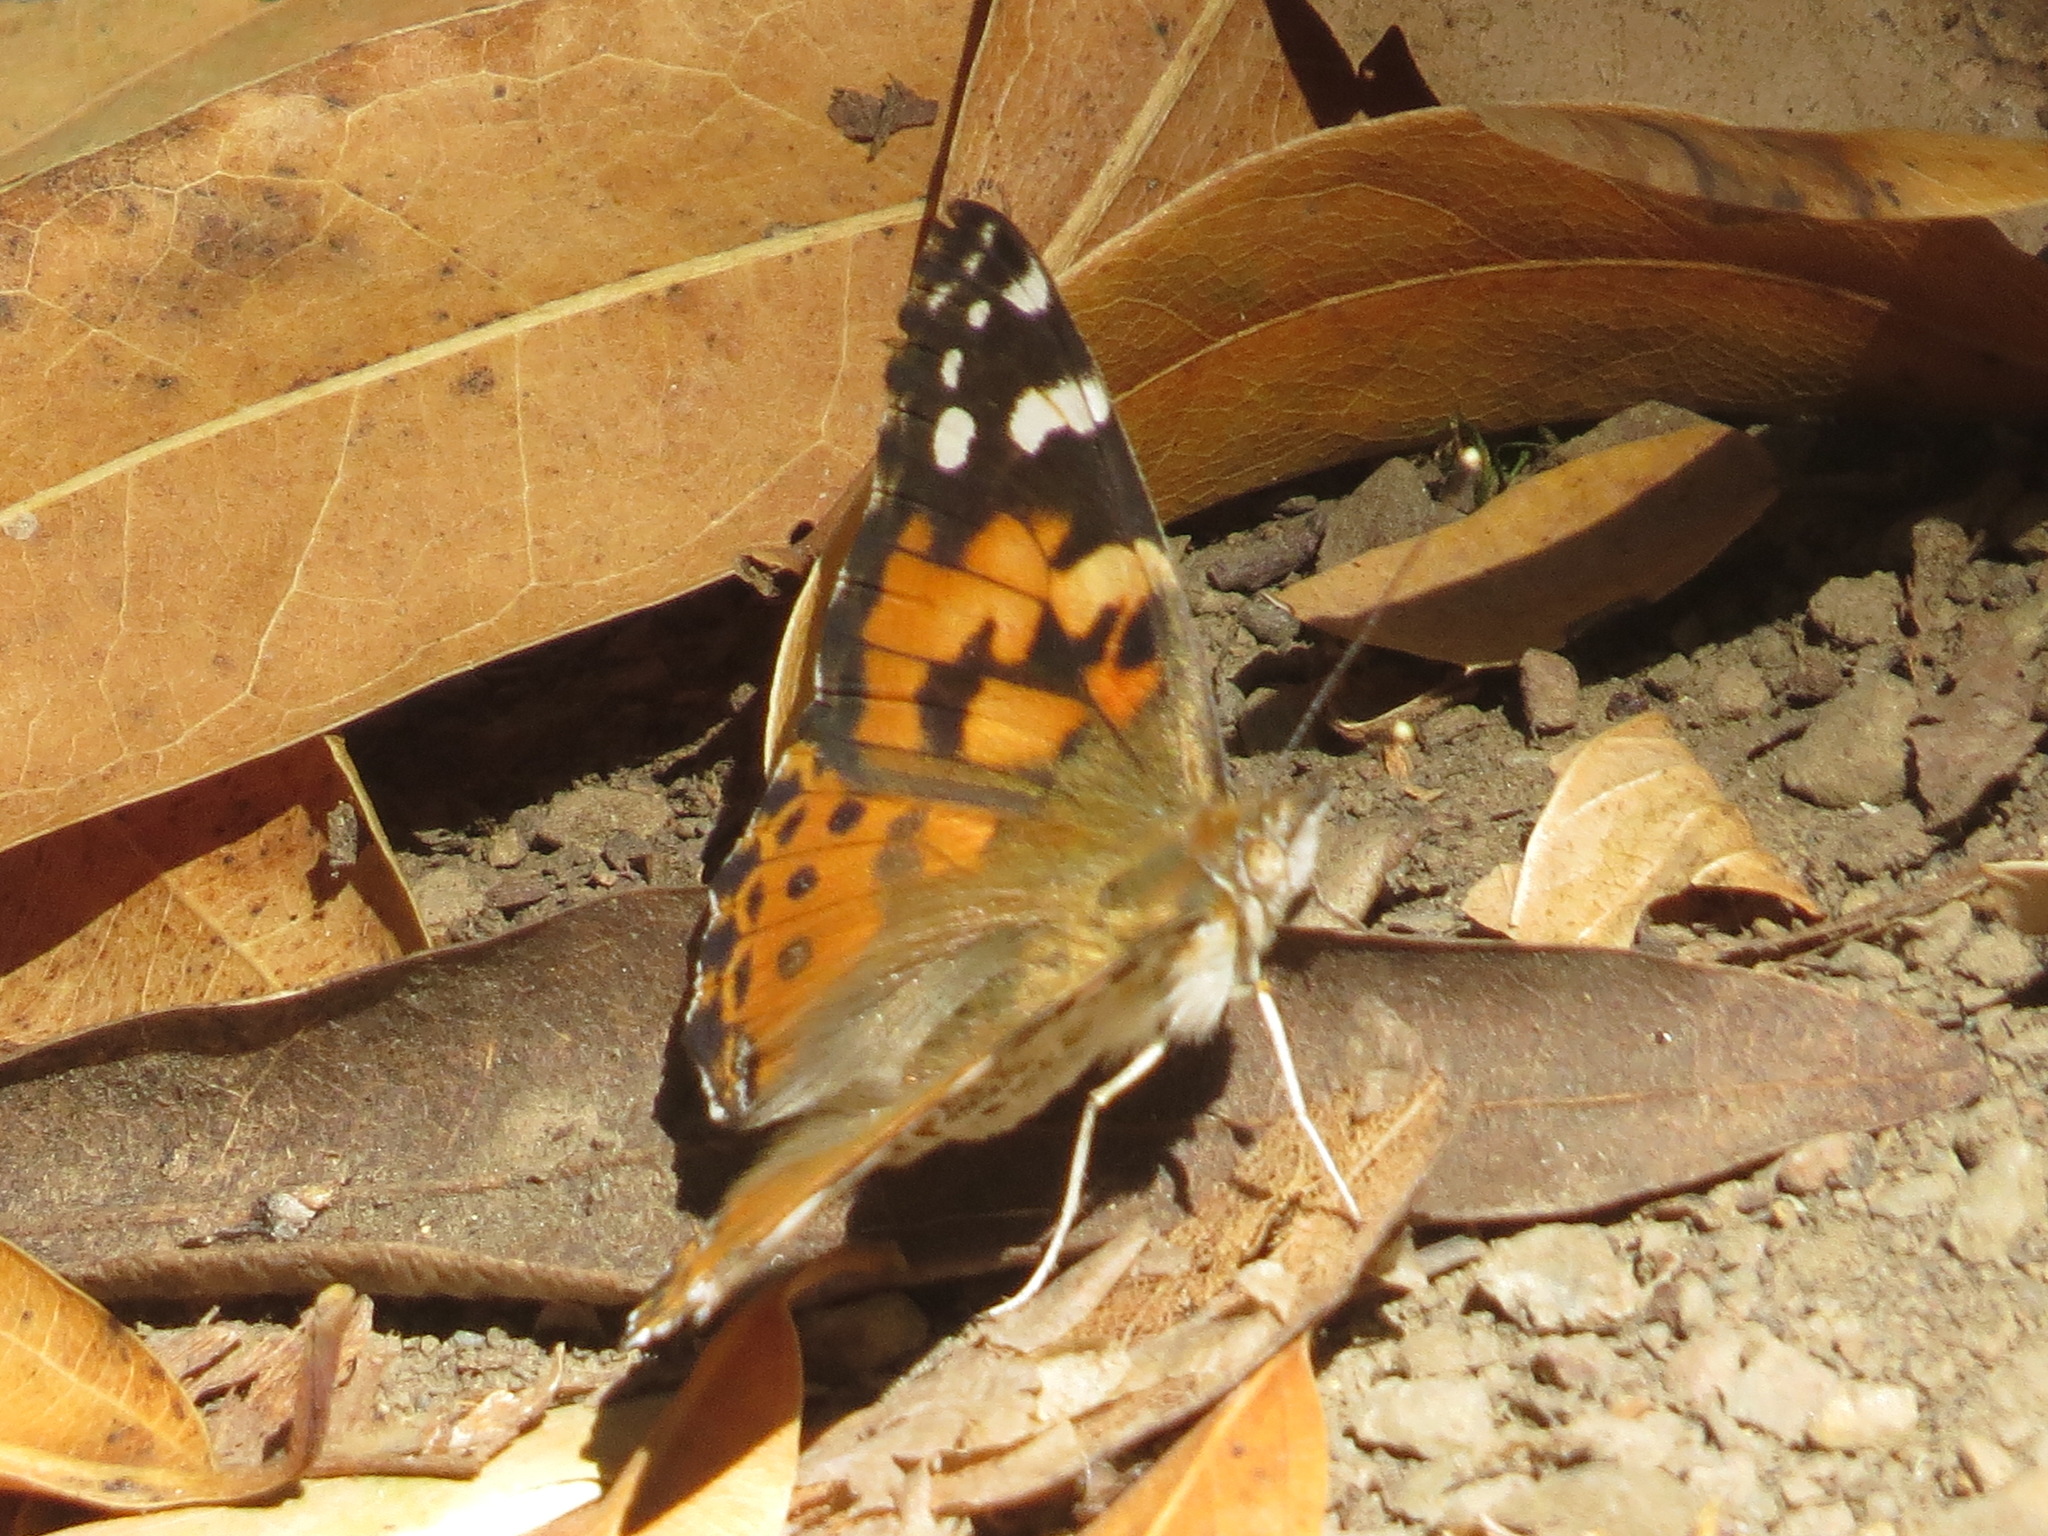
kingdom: Animalia
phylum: Arthropoda
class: Insecta
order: Lepidoptera
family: Nymphalidae
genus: Vanessa
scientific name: Vanessa cardui
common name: Painted lady
